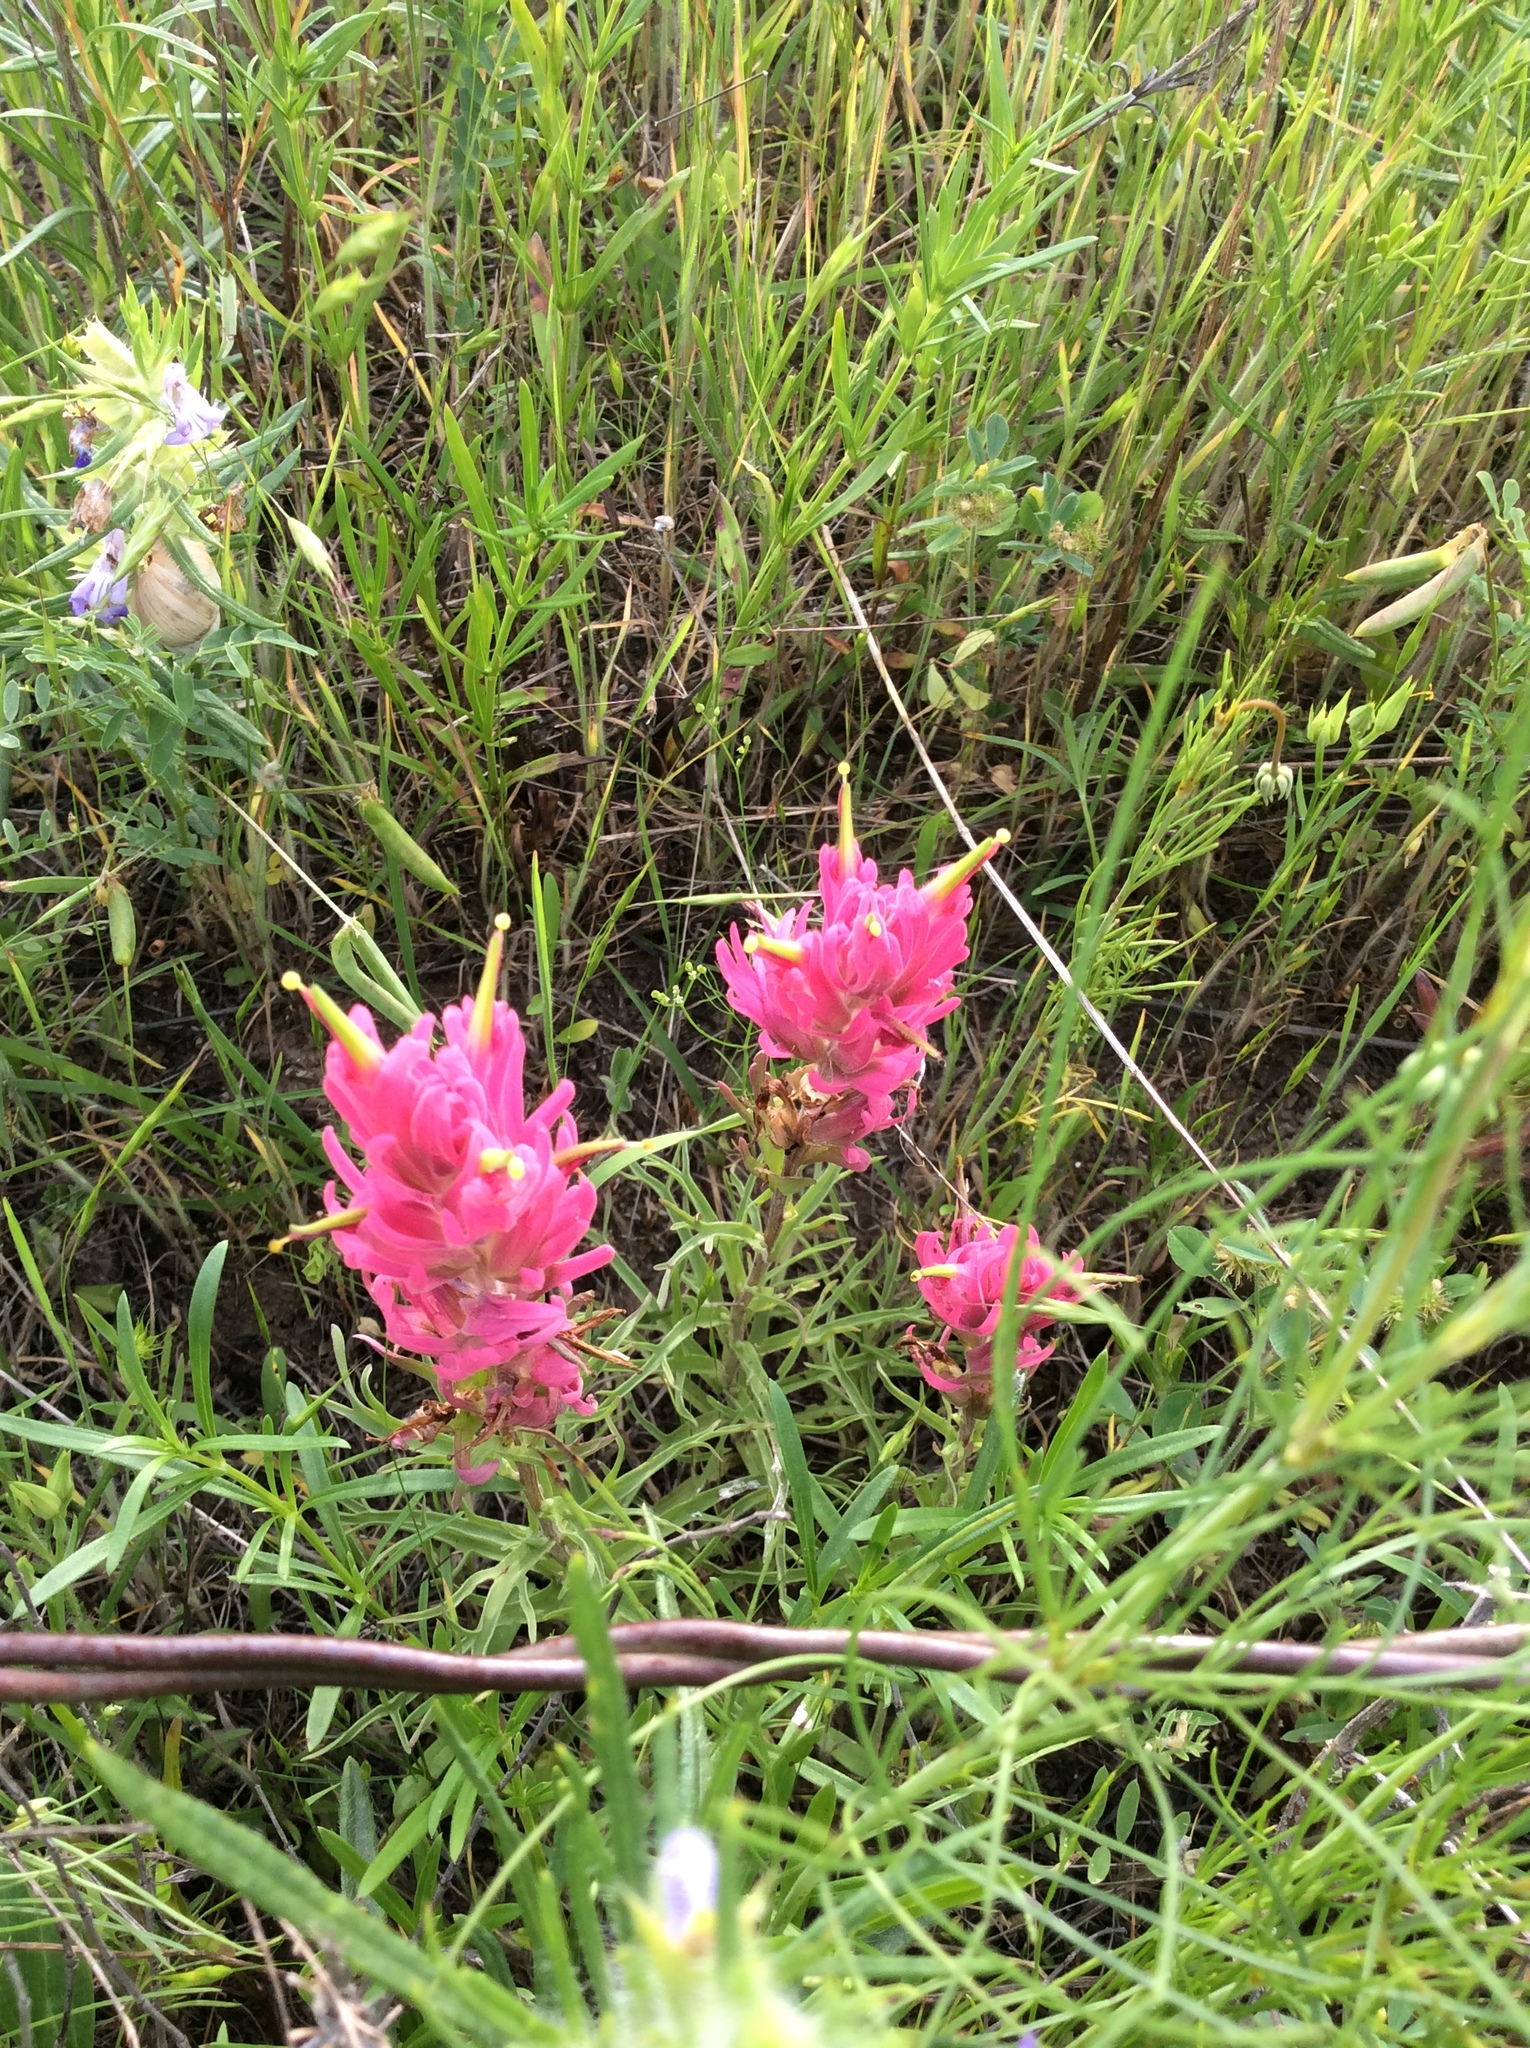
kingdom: Plantae
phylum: Tracheophyta
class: Magnoliopsida
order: Lamiales
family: Orobanchaceae
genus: Castilleja
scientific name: Castilleja purpurea
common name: Plains paintbrush
